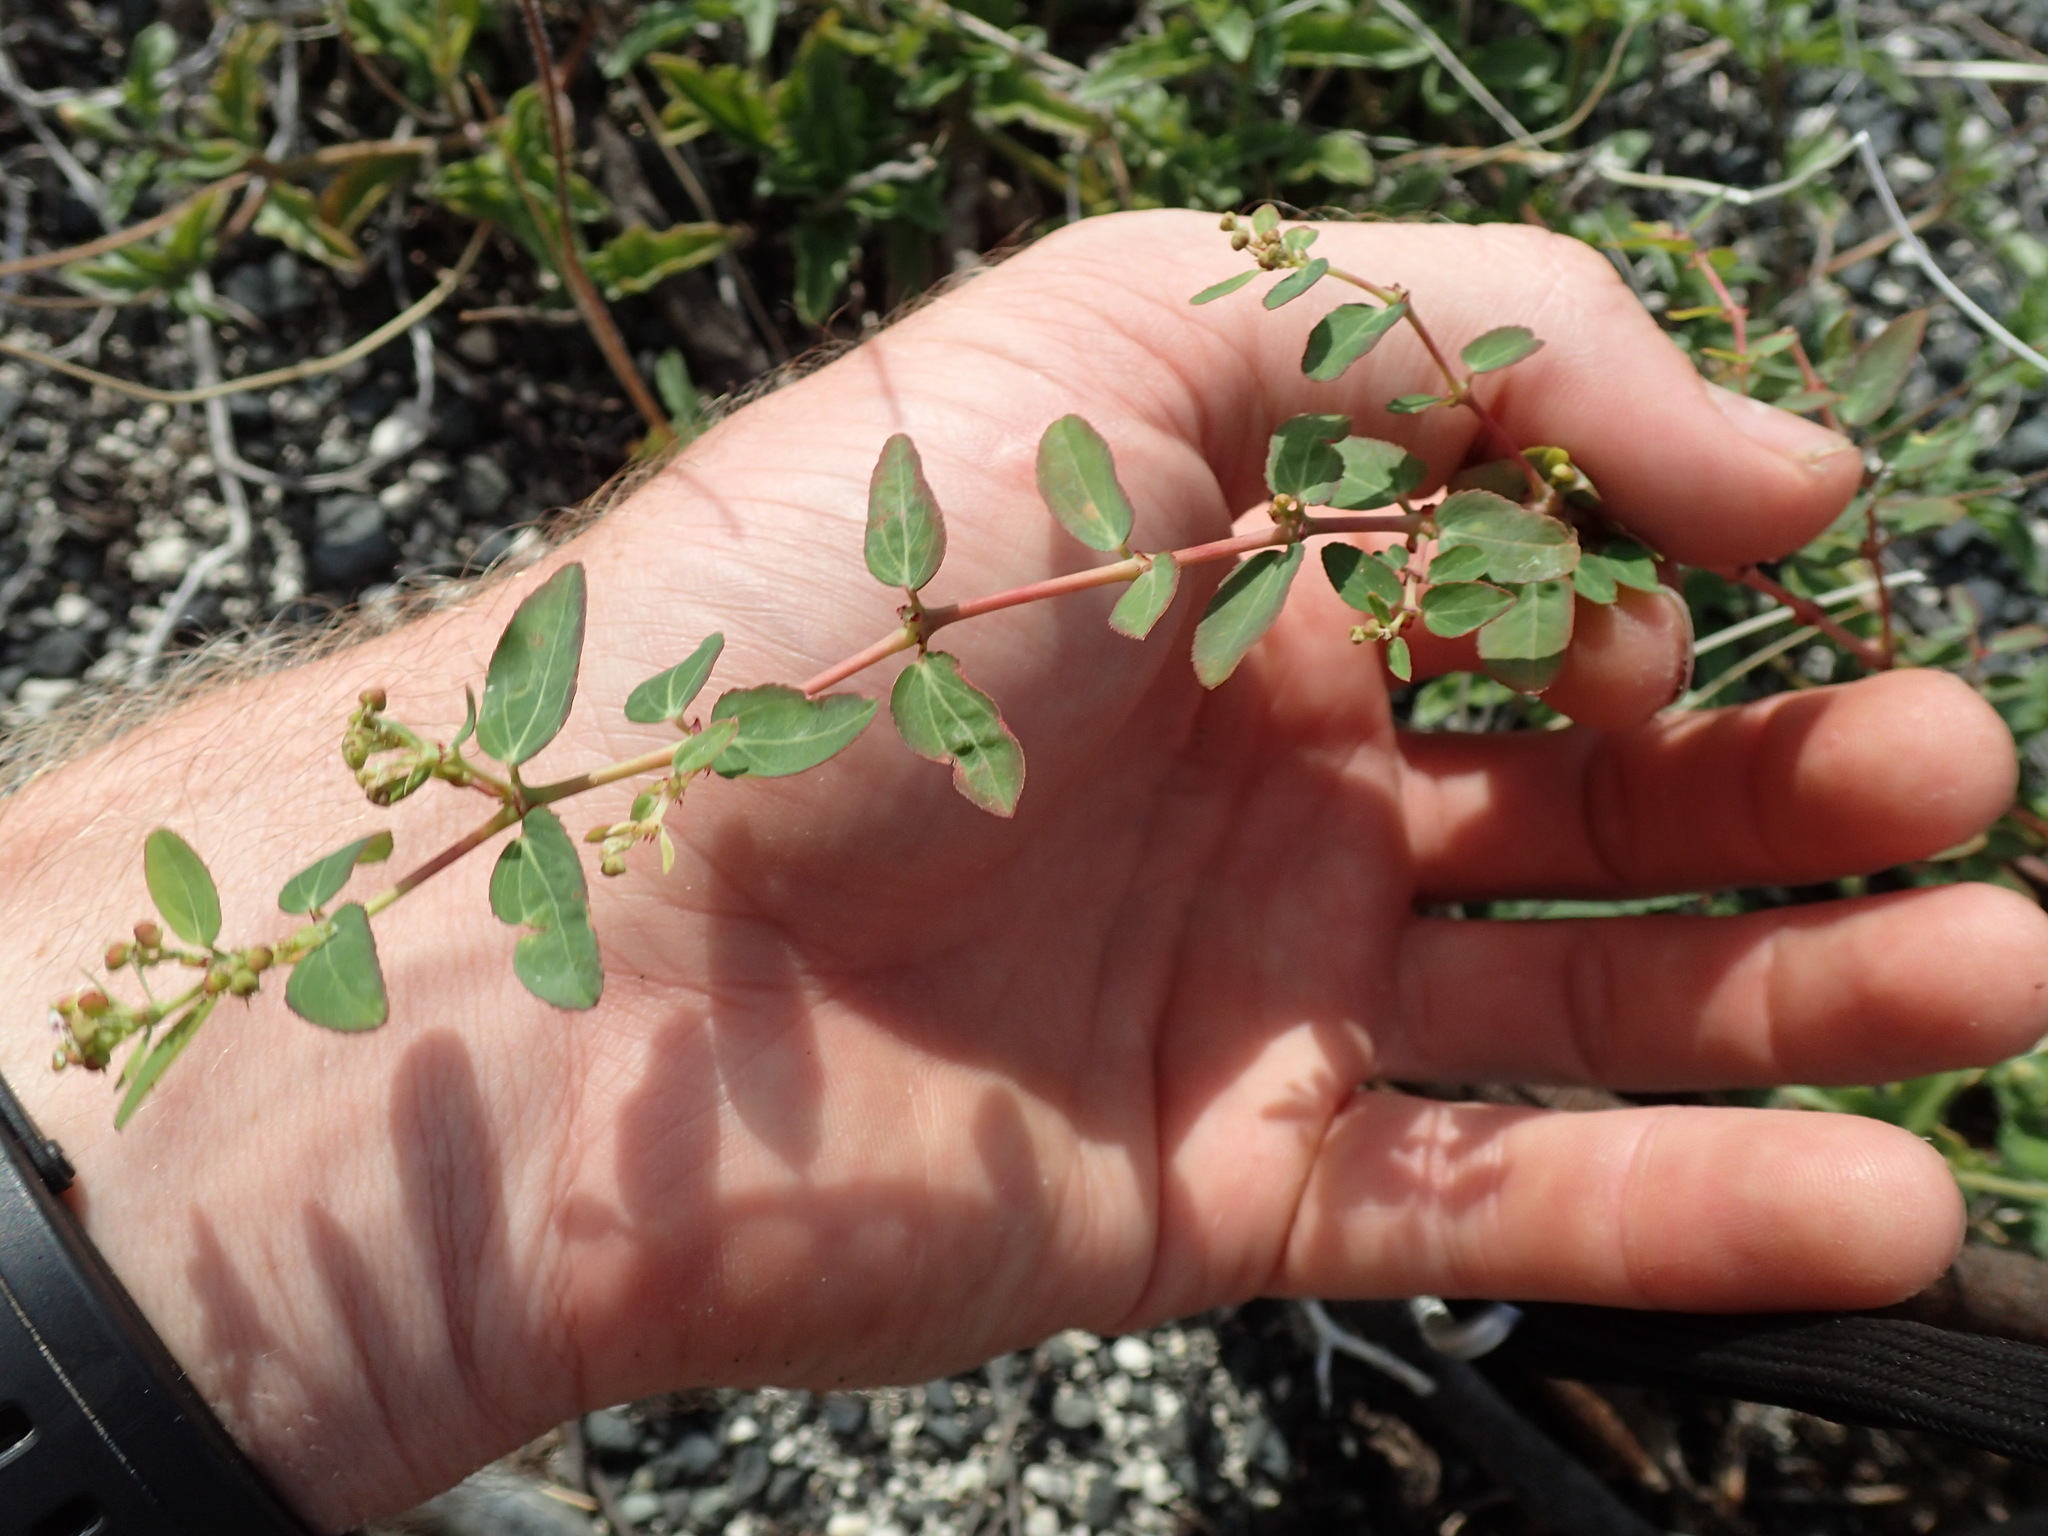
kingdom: Plantae
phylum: Tracheophyta
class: Magnoliopsida
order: Malpighiales
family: Euphorbiaceae
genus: Euphorbia
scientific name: Euphorbia hypericifolia
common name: Graceful sandmat
